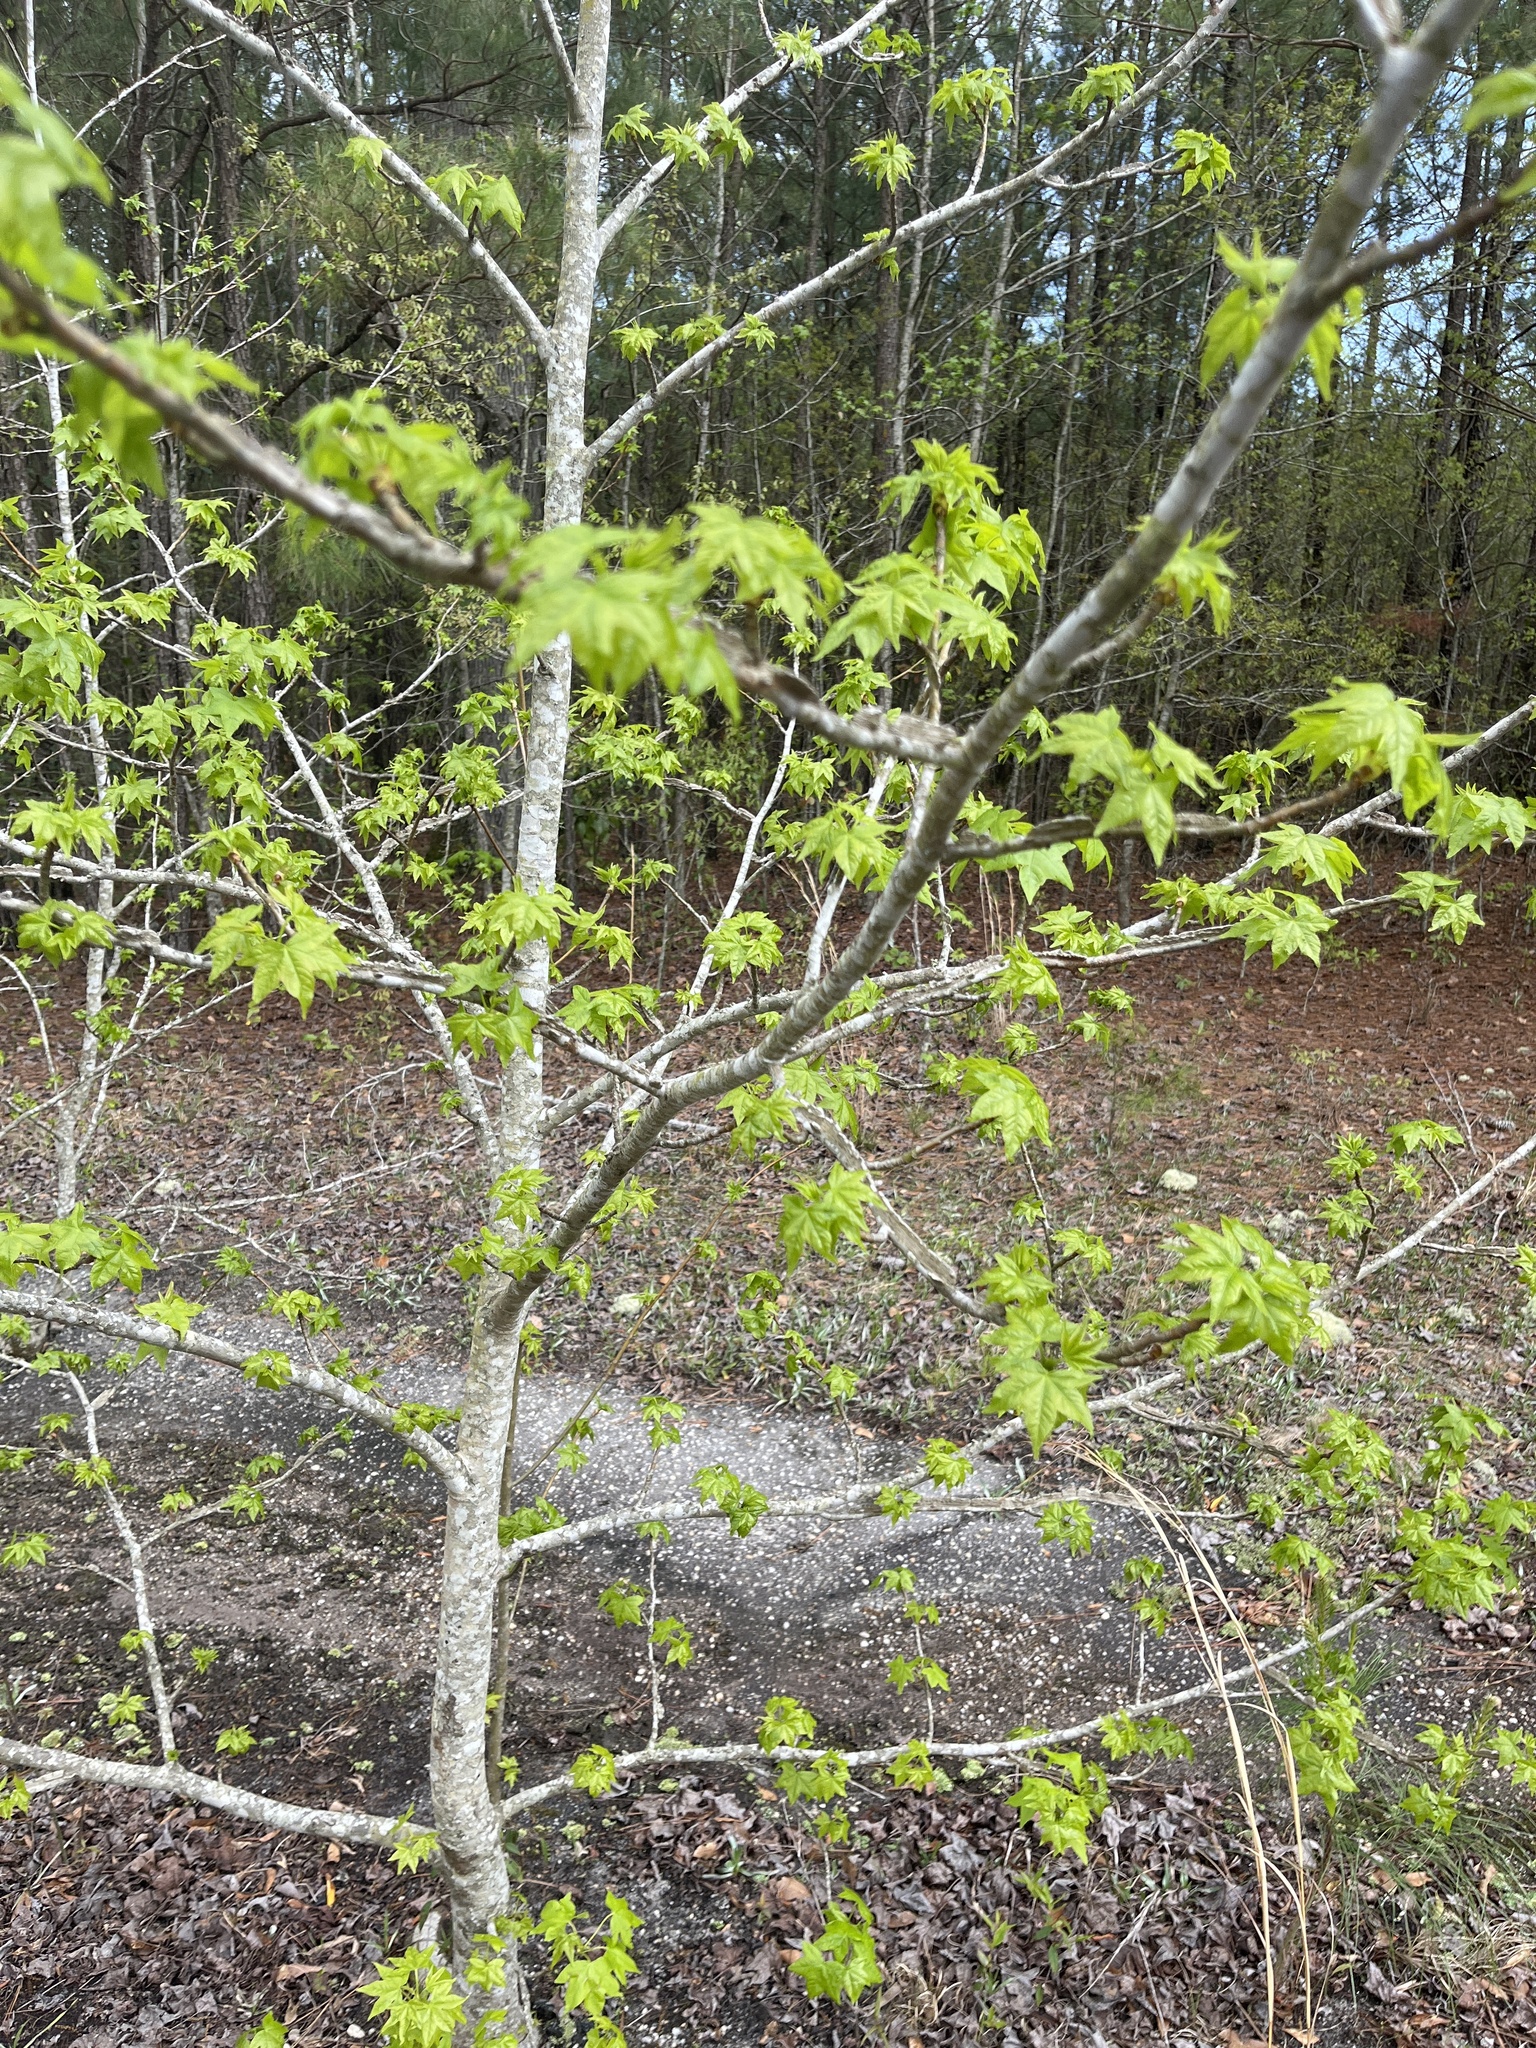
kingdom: Plantae
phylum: Tracheophyta
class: Magnoliopsida
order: Saxifragales
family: Altingiaceae
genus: Liquidambar
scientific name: Liquidambar styraciflua
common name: Sweet gum
